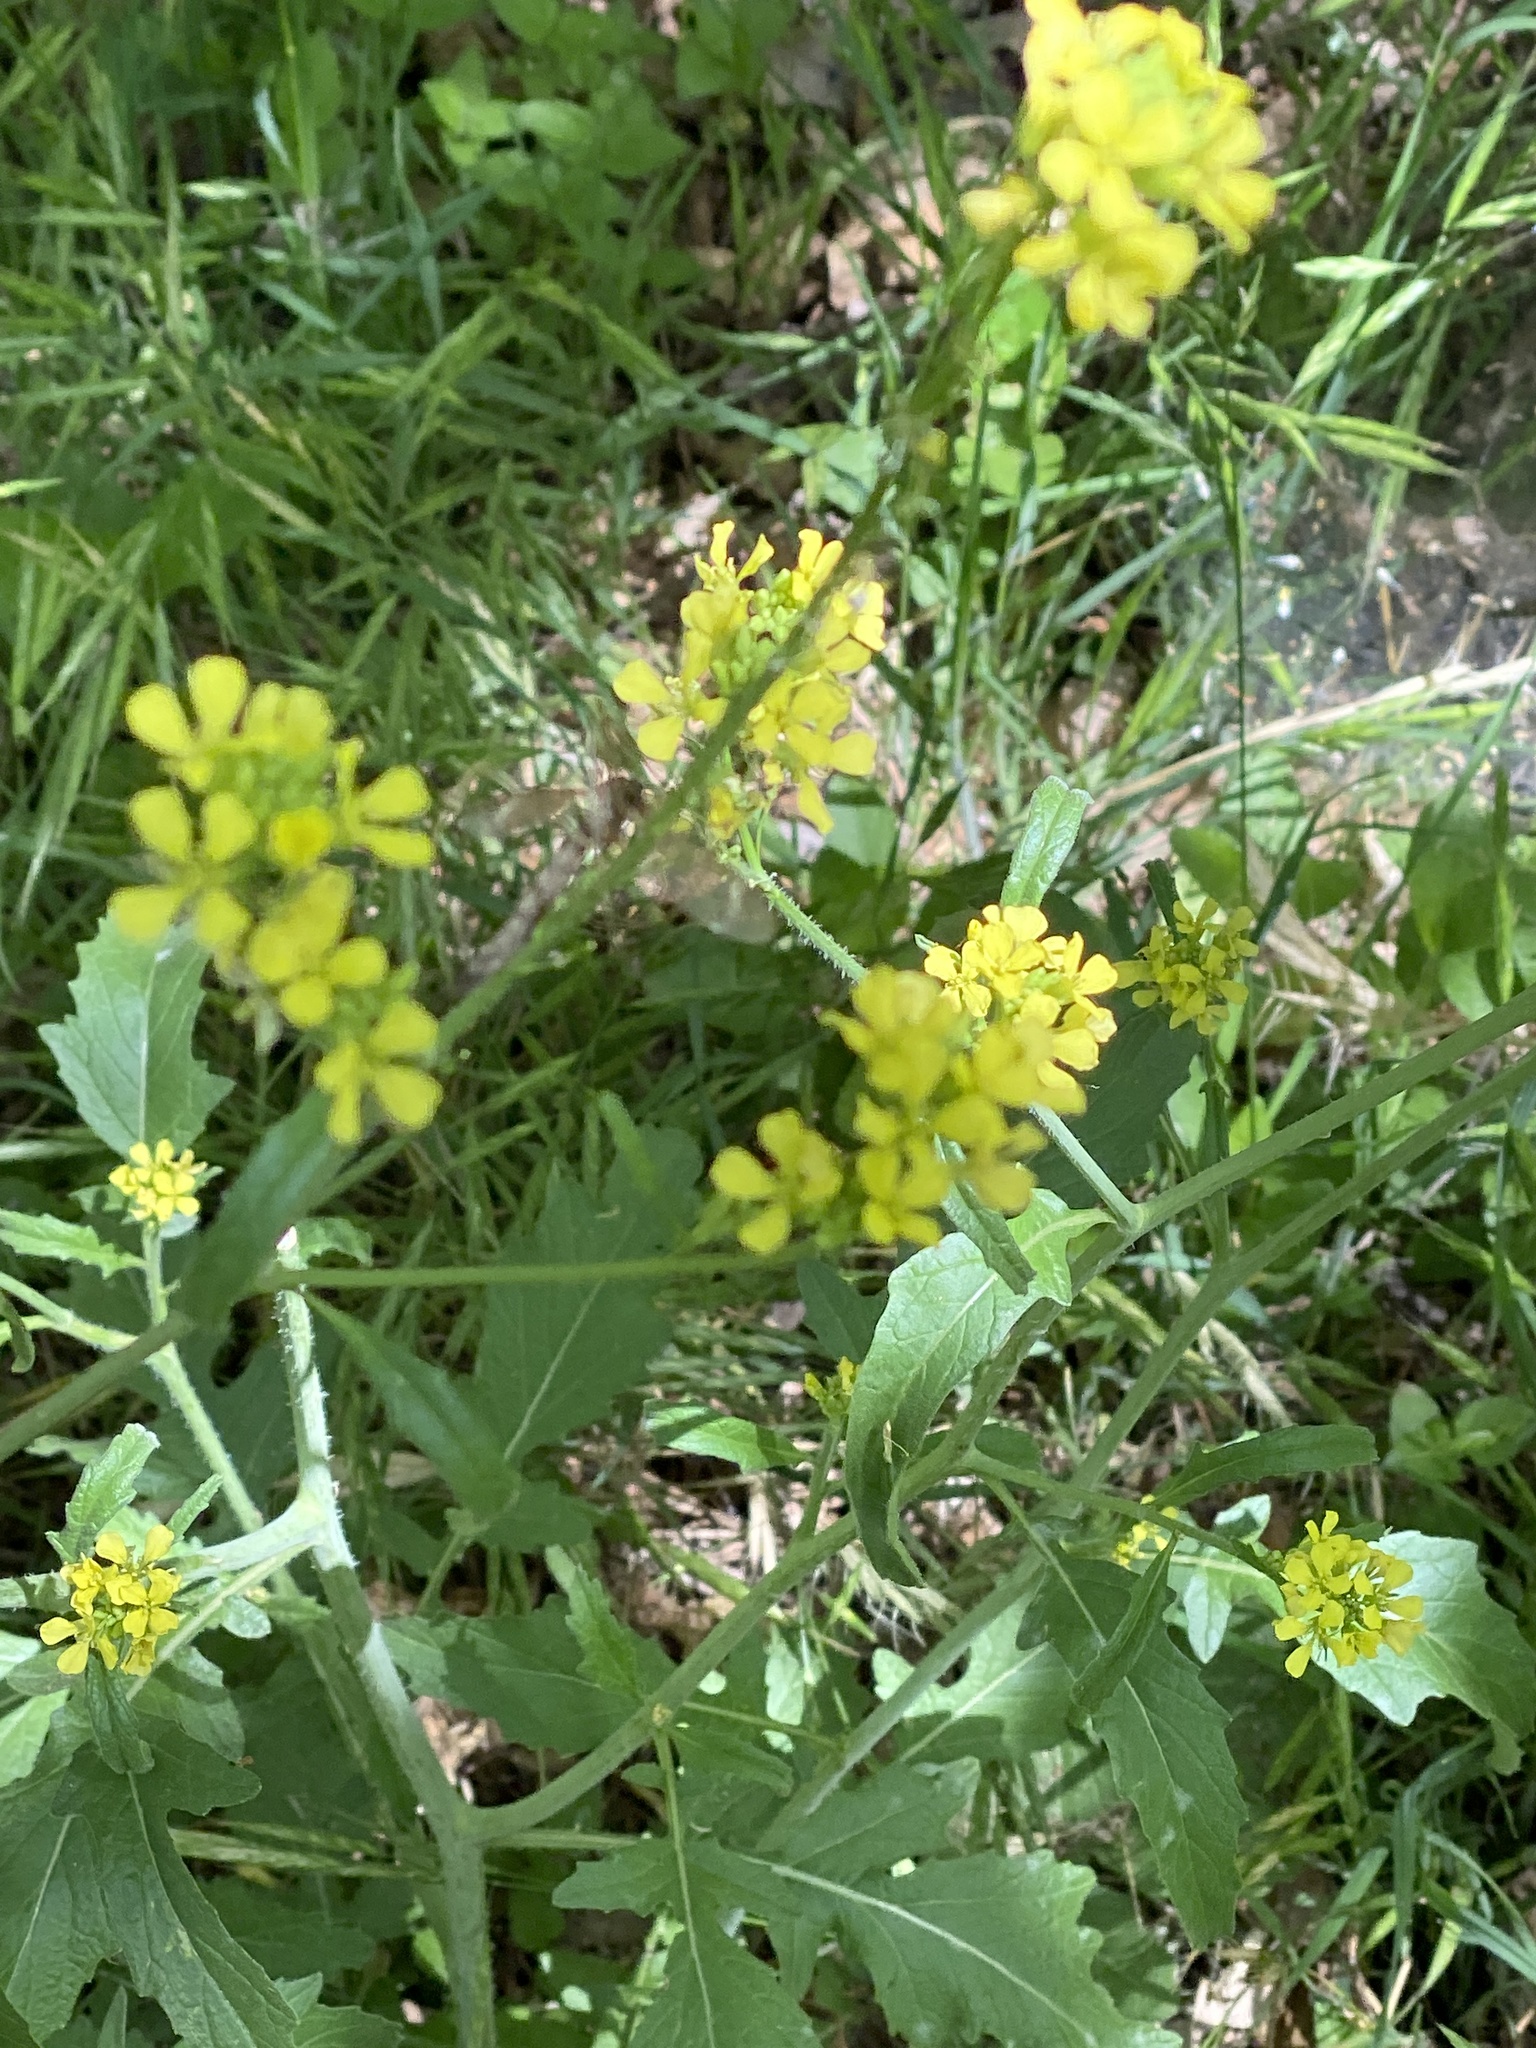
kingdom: Plantae
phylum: Tracheophyta
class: Magnoliopsida
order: Brassicales
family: Brassicaceae
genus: Rapistrum
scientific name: Rapistrum rugosum
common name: Annual bastardcabbage
